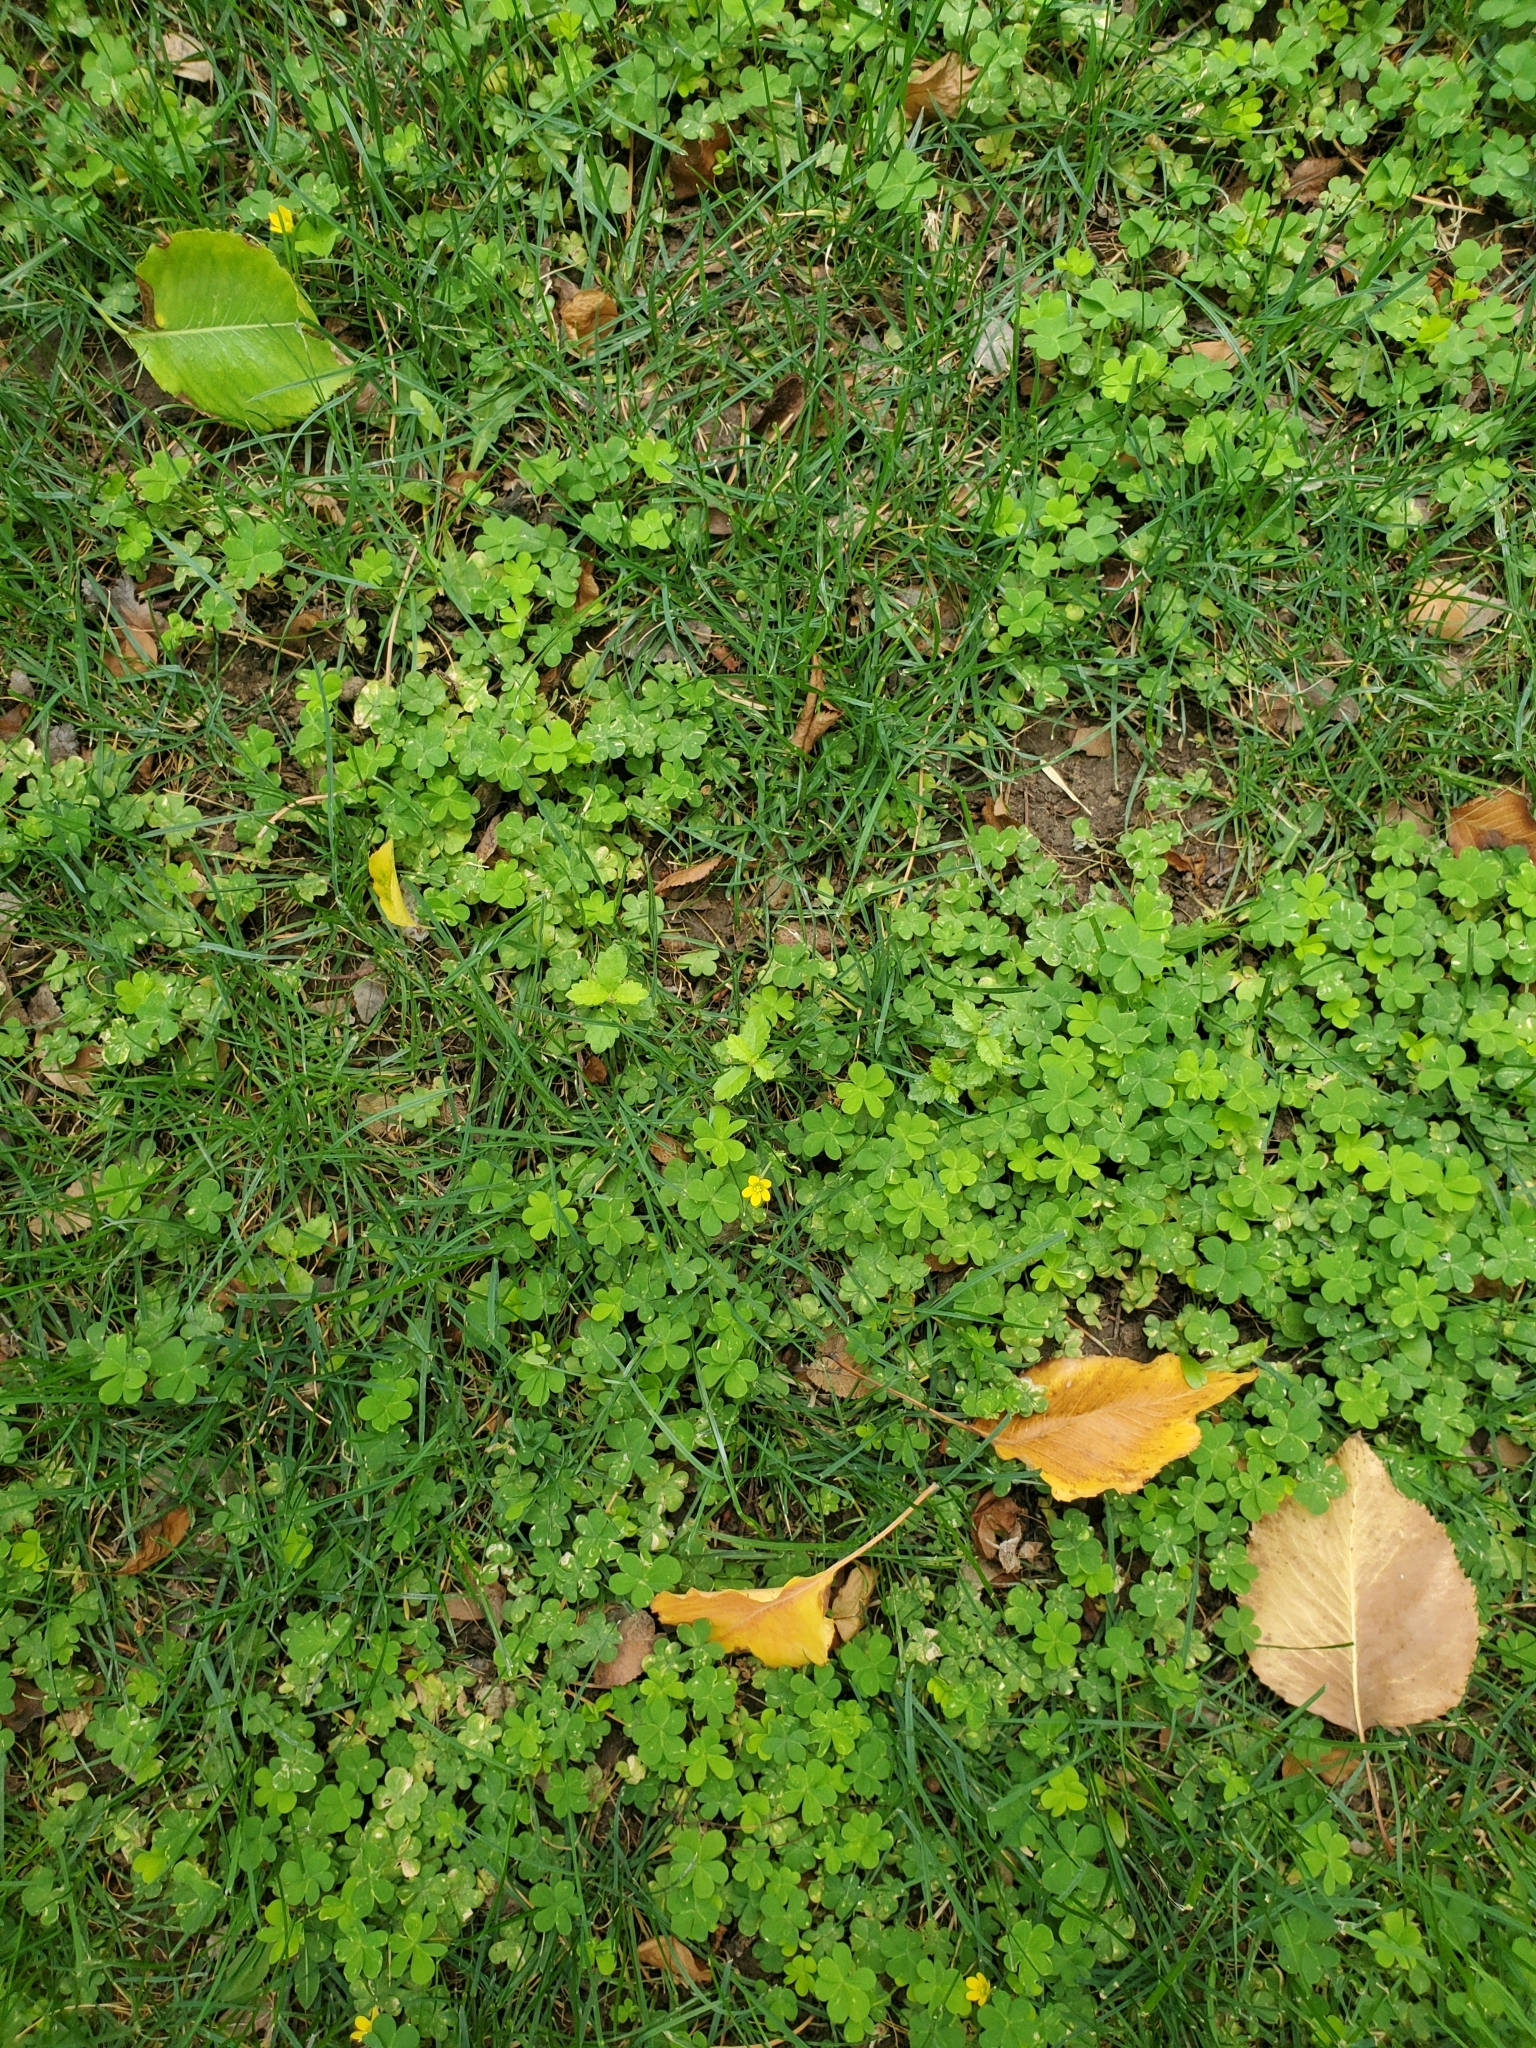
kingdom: Plantae
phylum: Tracheophyta
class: Magnoliopsida
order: Oxalidales
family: Oxalidaceae
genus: Oxalis
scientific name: Oxalis corniculata
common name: Procumbent yellow-sorrel
